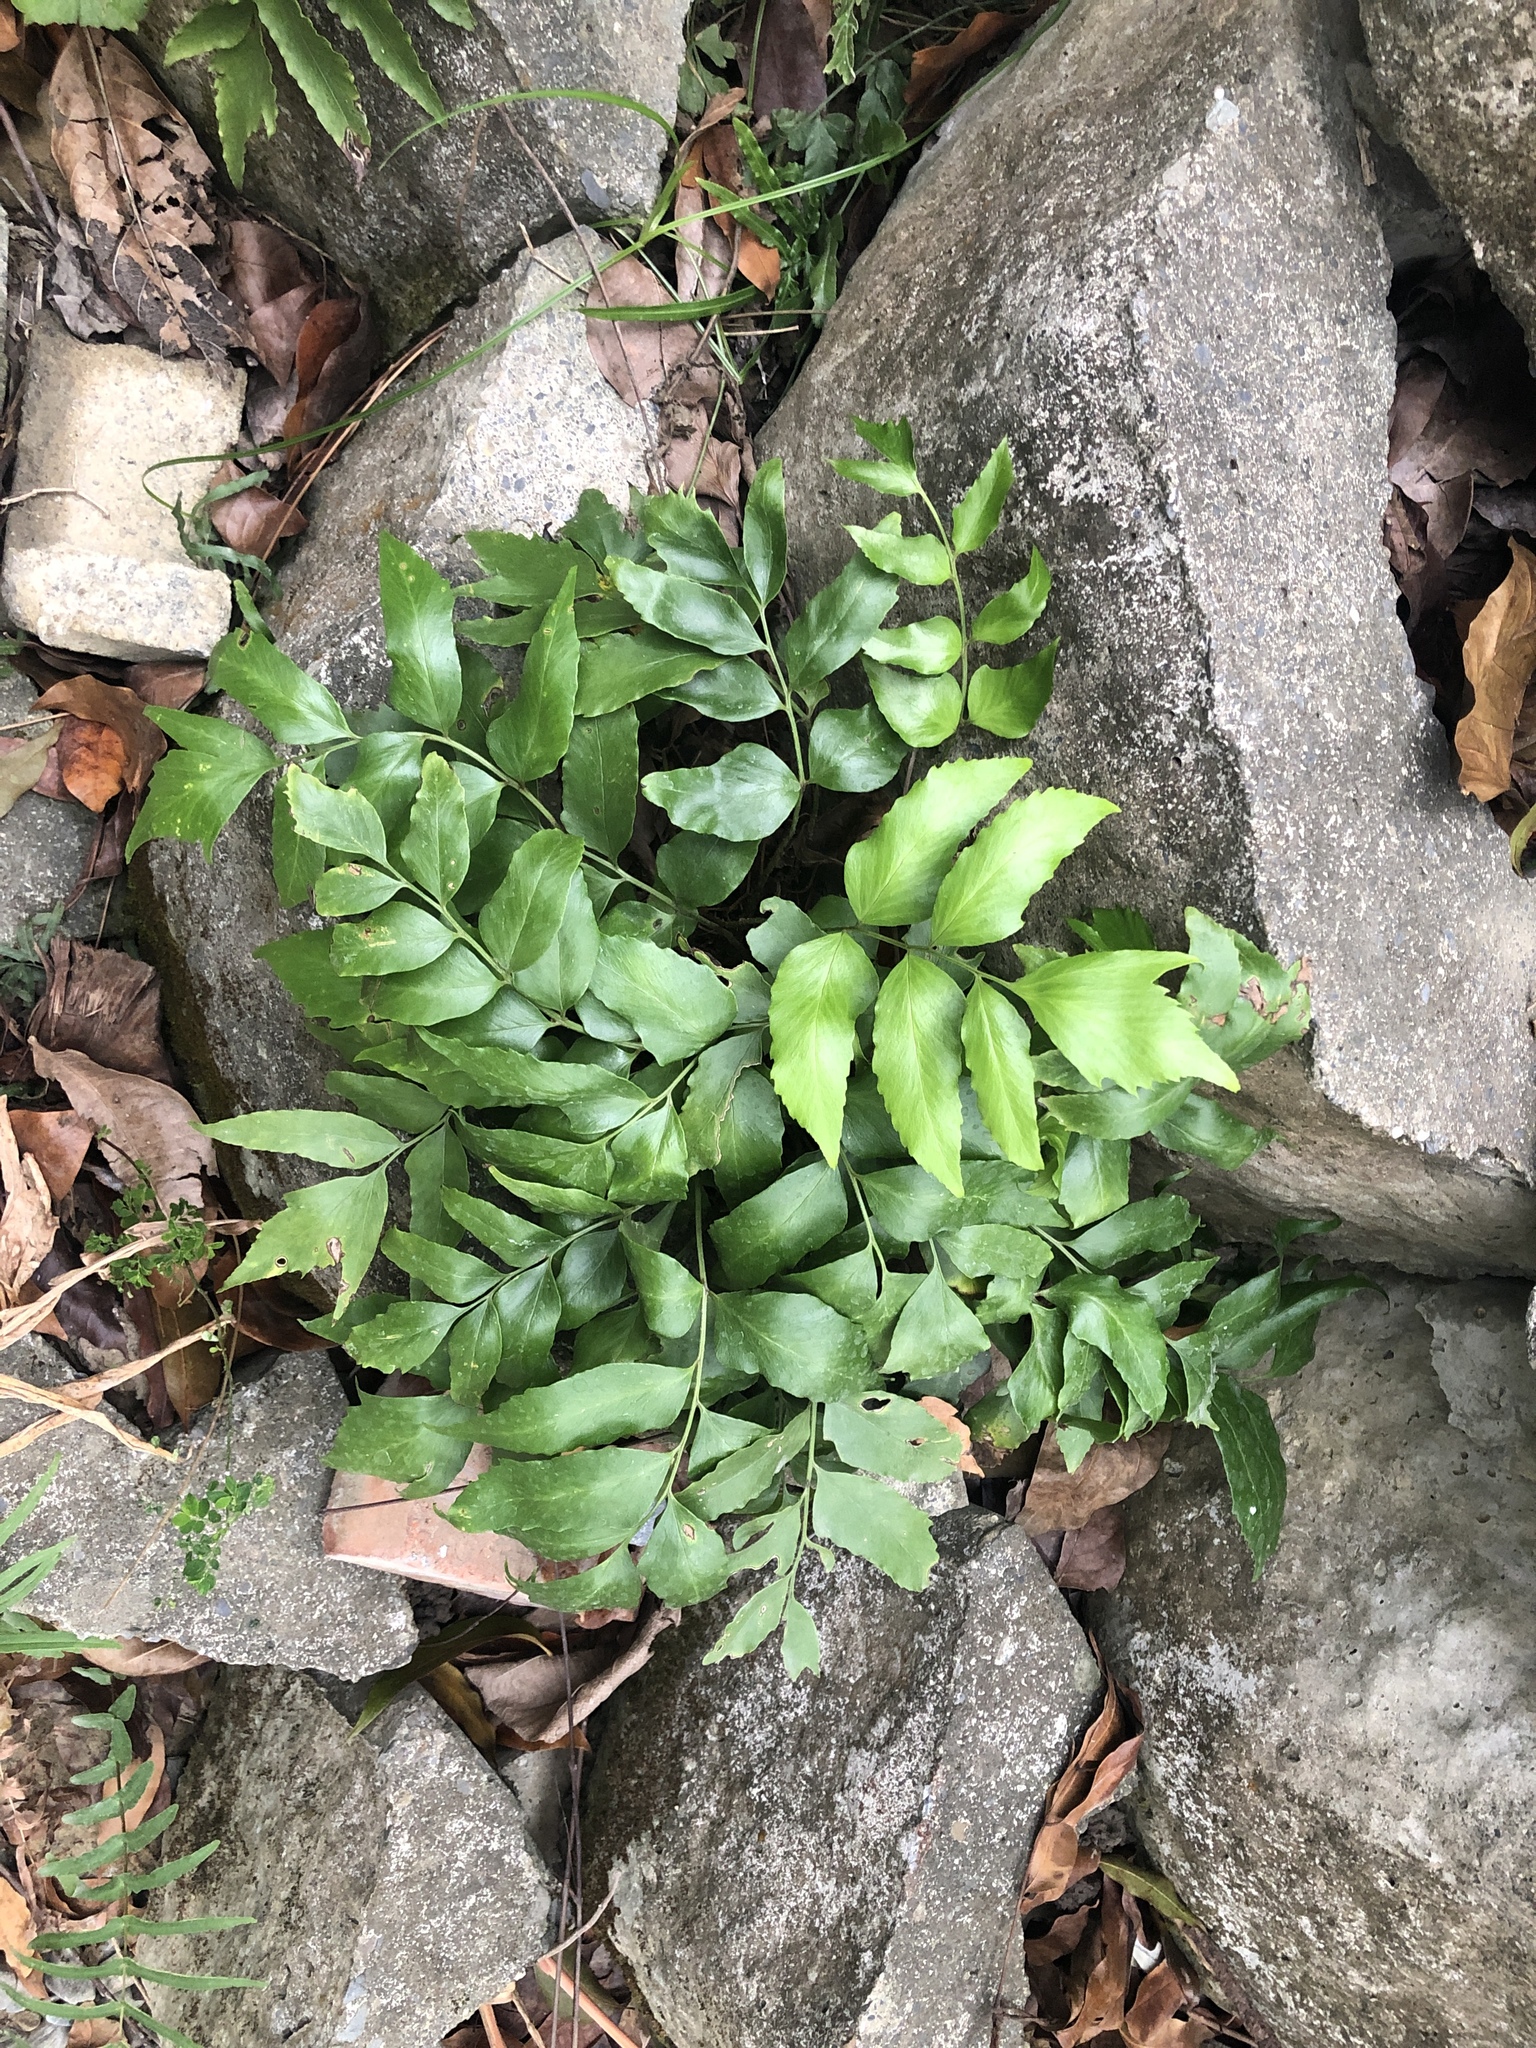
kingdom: Plantae
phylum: Tracheophyta
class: Polypodiopsida
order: Polypodiales
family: Dryopteridaceae
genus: Cyrtomium
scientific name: Cyrtomium falcatum
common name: House holly-fern
